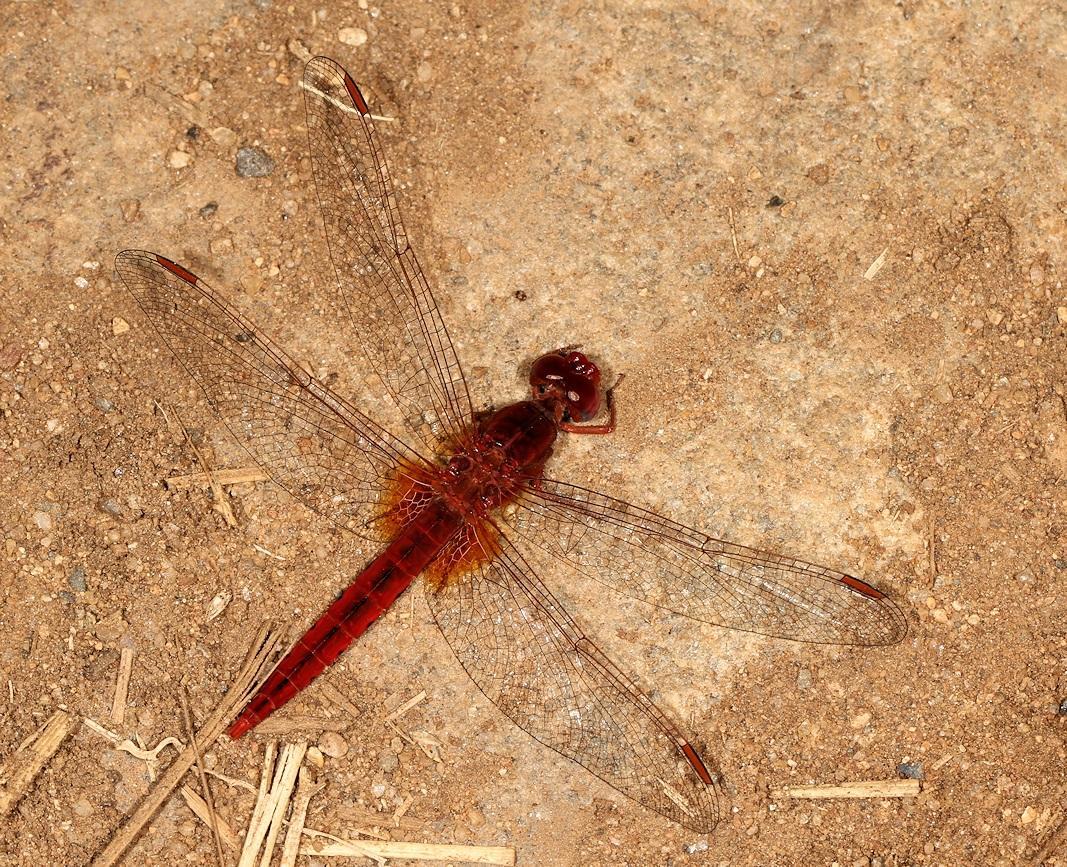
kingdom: Animalia
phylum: Arthropoda
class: Insecta
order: Odonata
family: Libellulidae
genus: Crocothemis
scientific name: Crocothemis sanguinolenta
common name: Little scarlet
